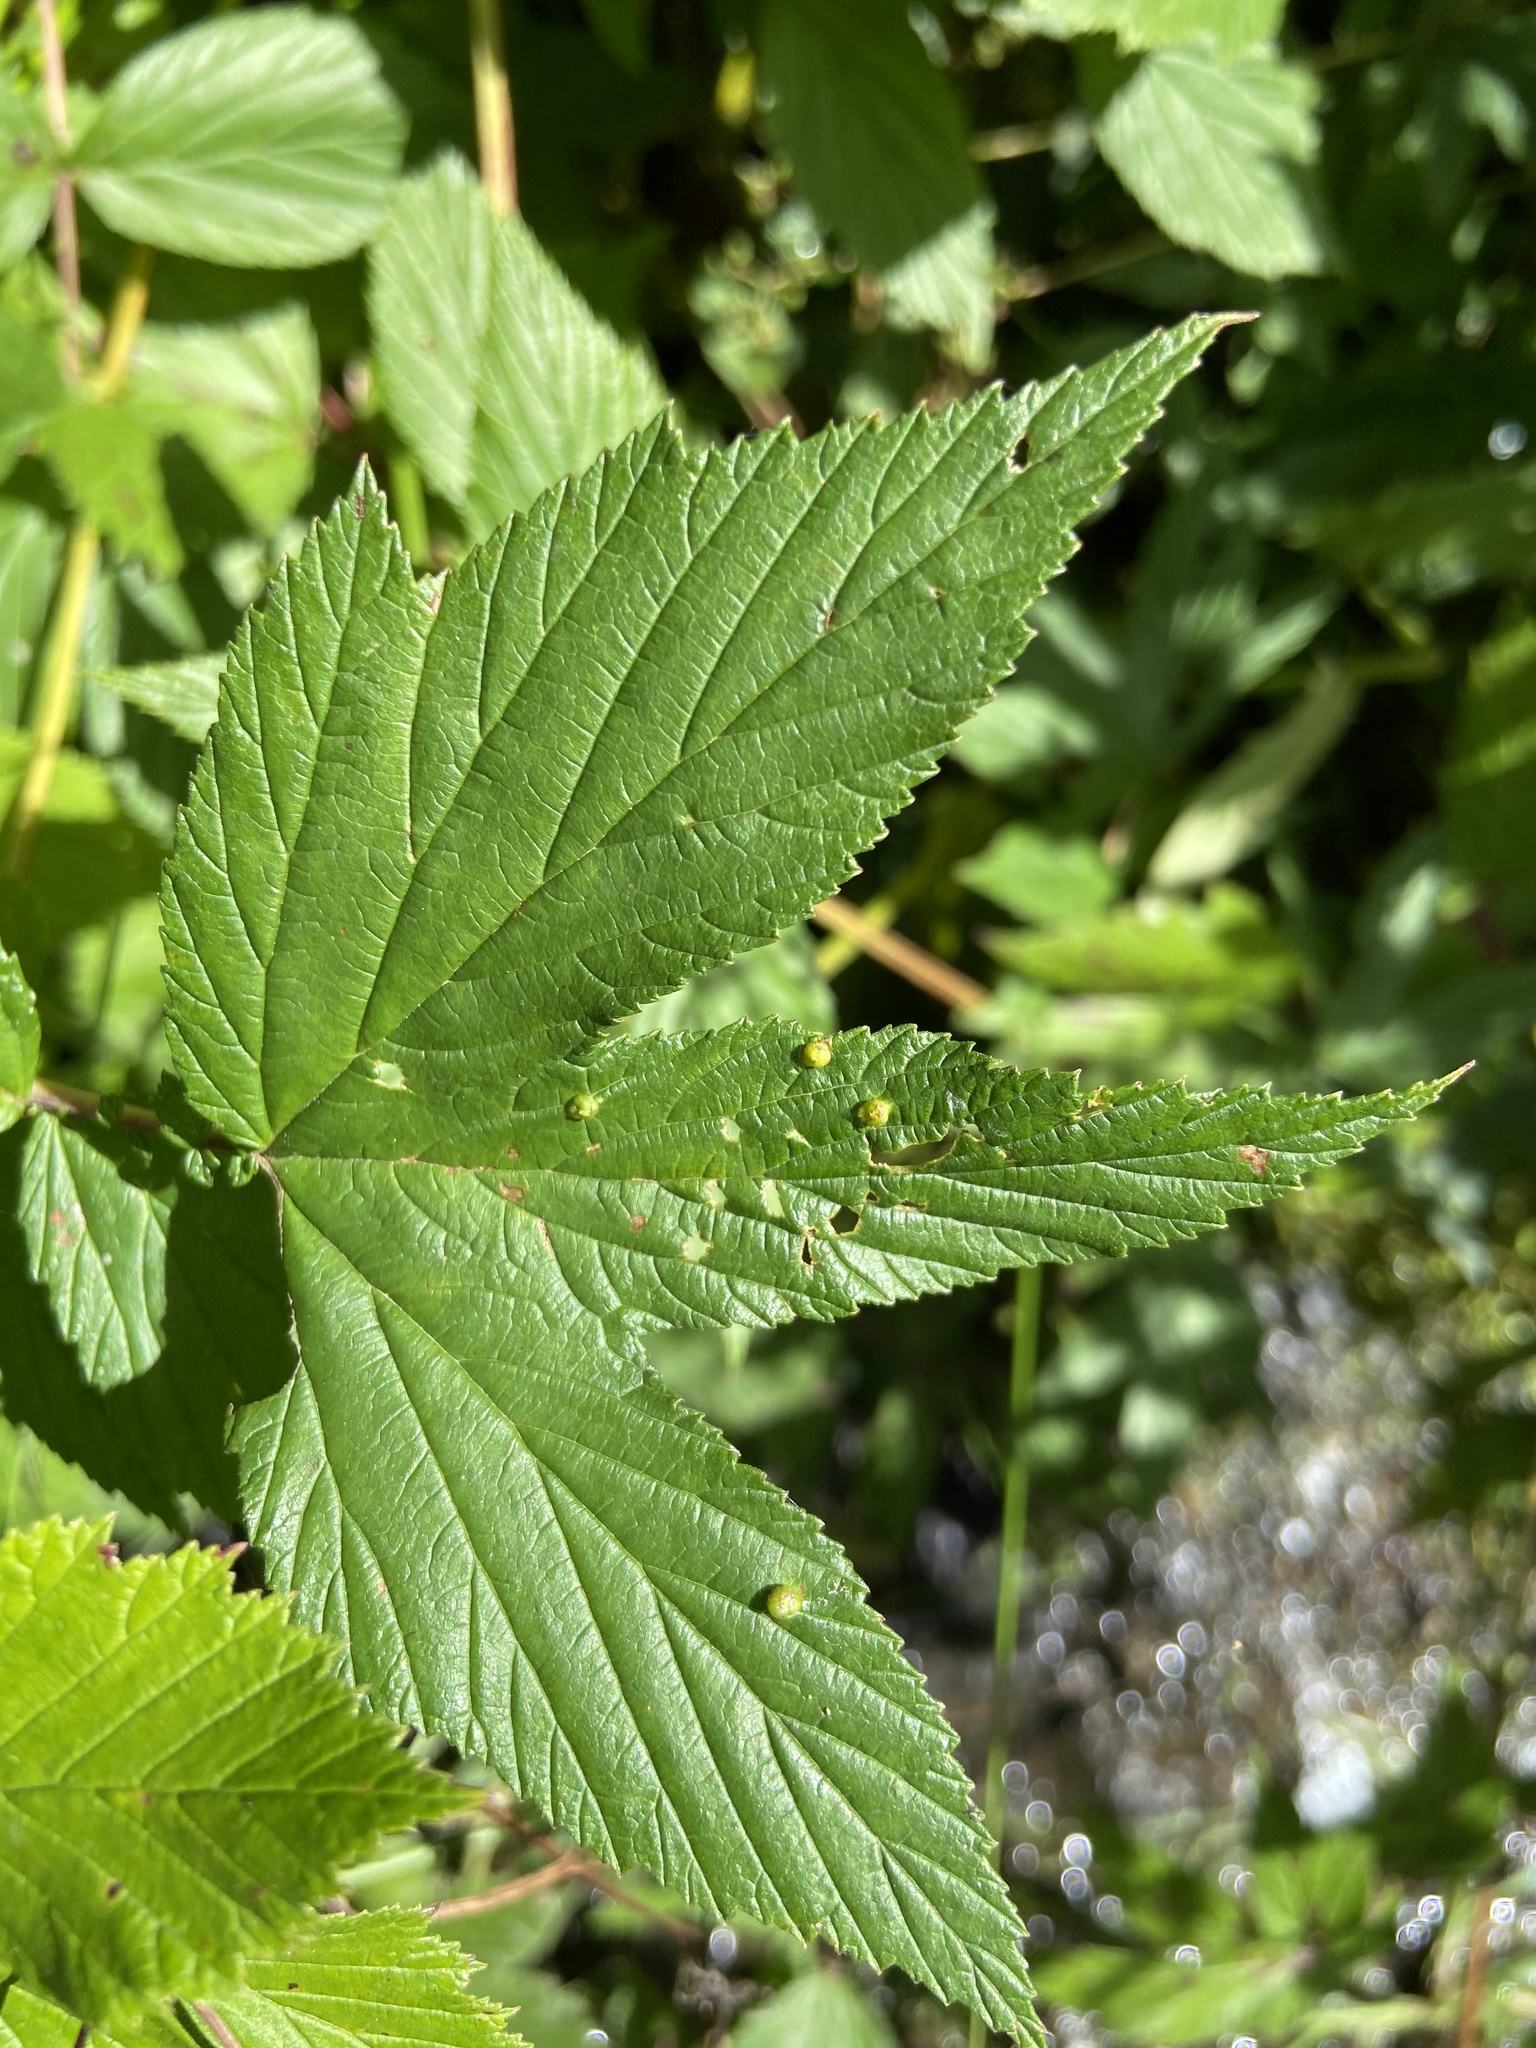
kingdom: Animalia
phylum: Arthropoda
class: Insecta
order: Diptera
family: Cecidomyiidae
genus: Dasineura
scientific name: Dasineura ulmaria
